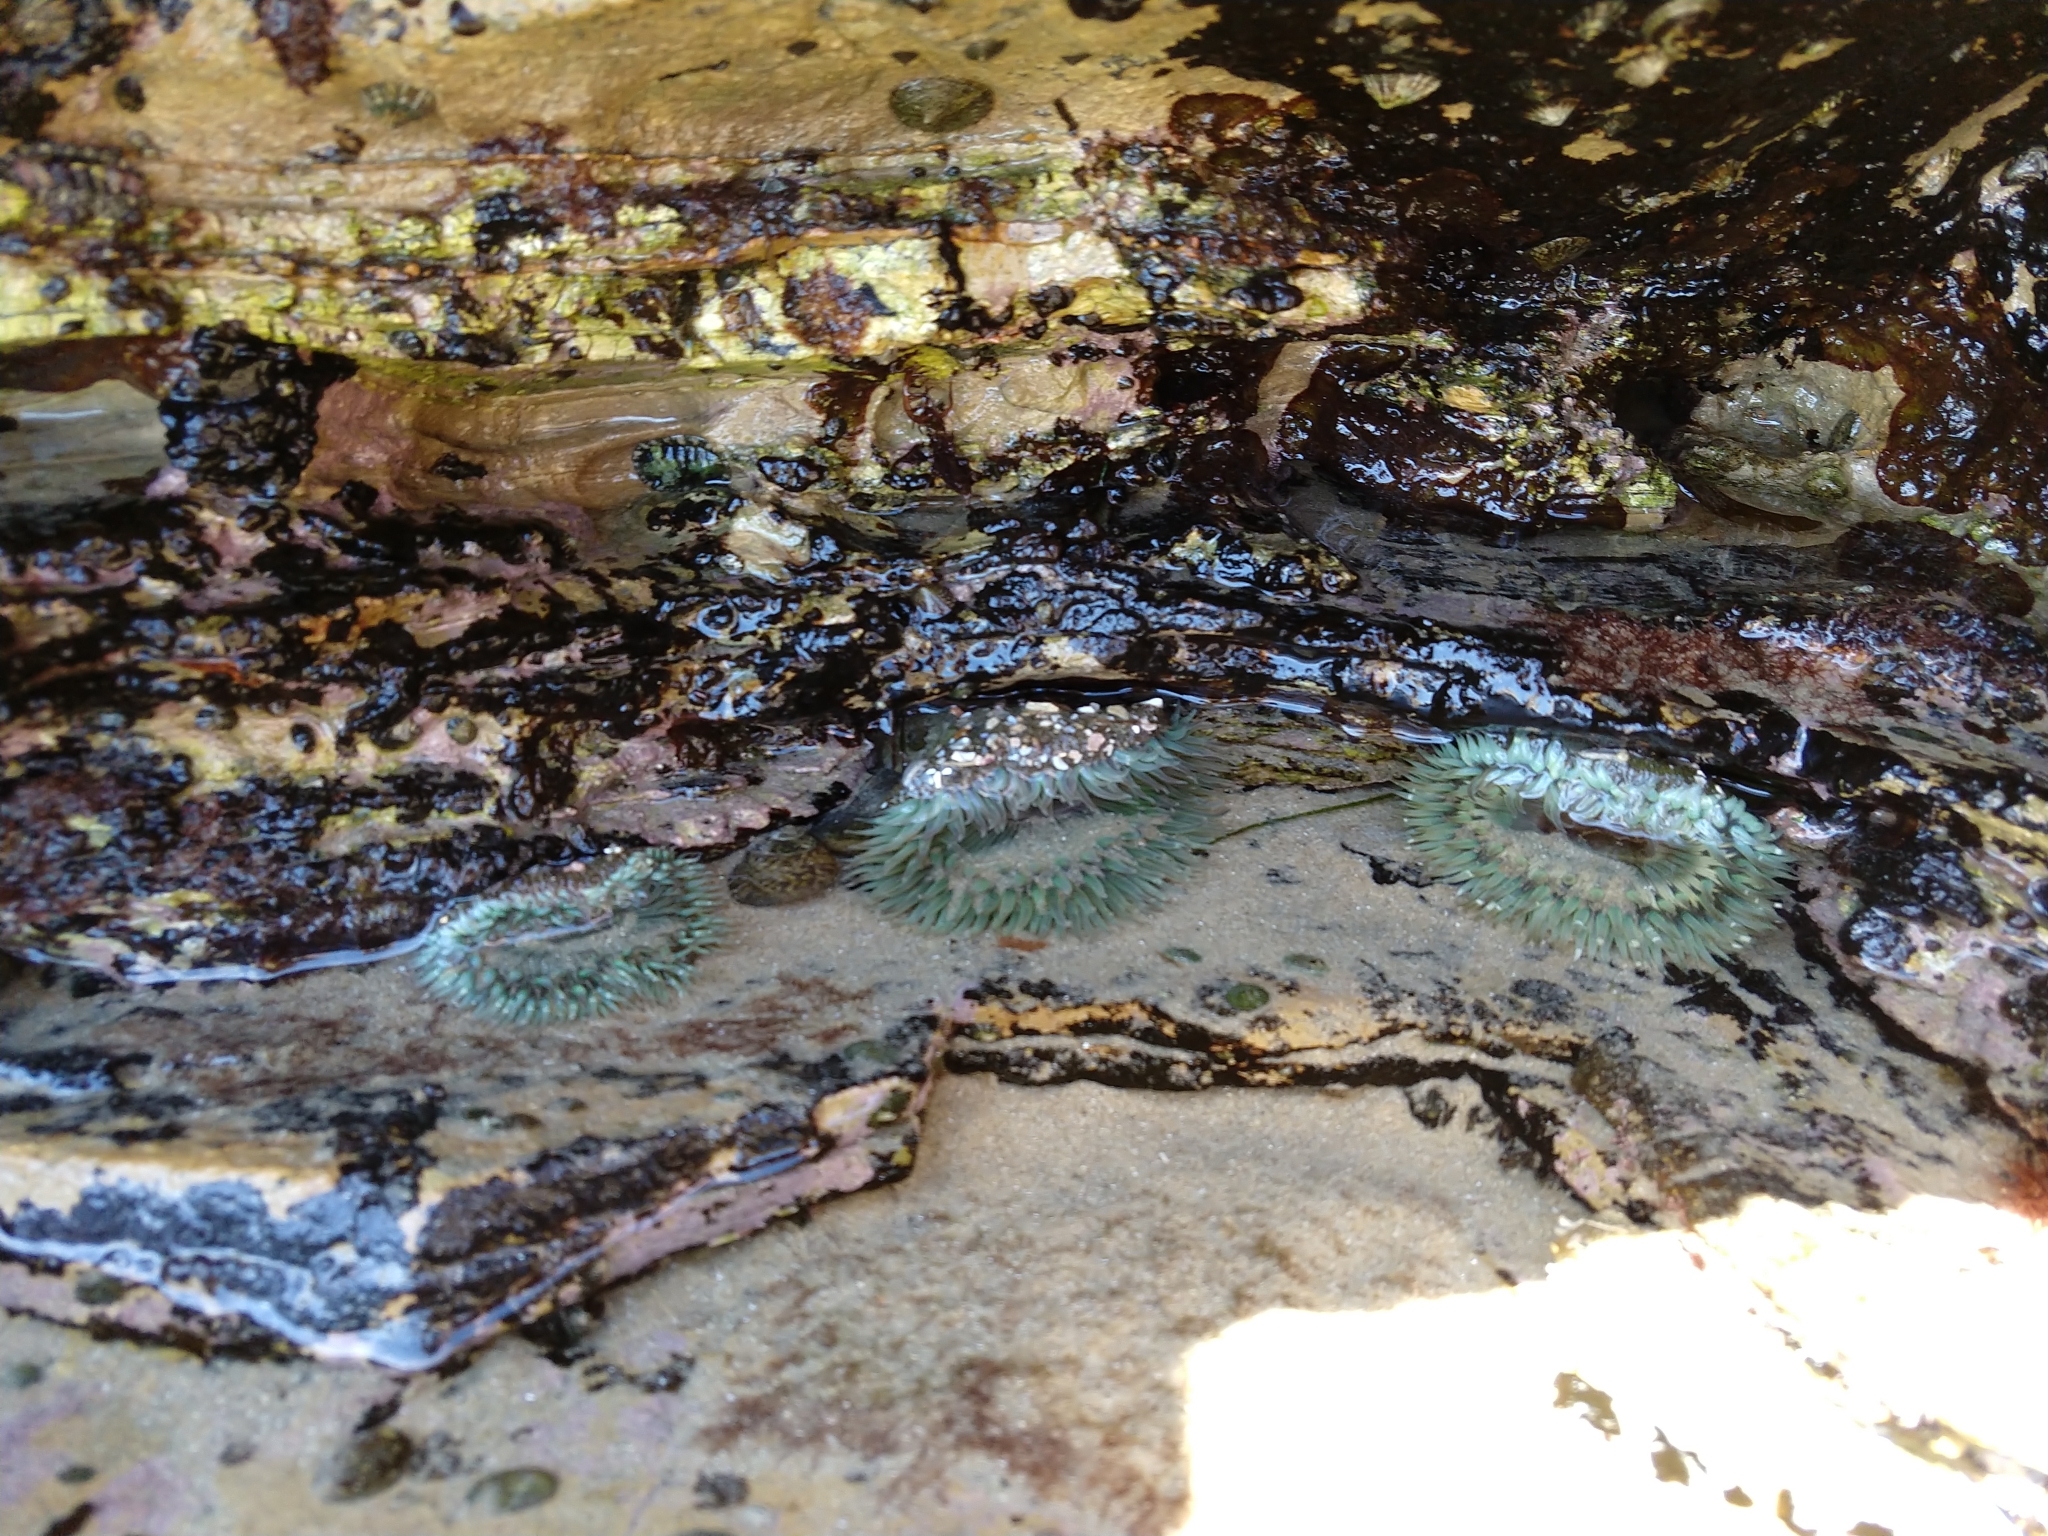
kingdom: Animalia
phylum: Cnidaria
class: Anthozoa
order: Actiniaria
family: Actiniidae
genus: Anthopleura
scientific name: Anthopleura sola
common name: Sun anemone
